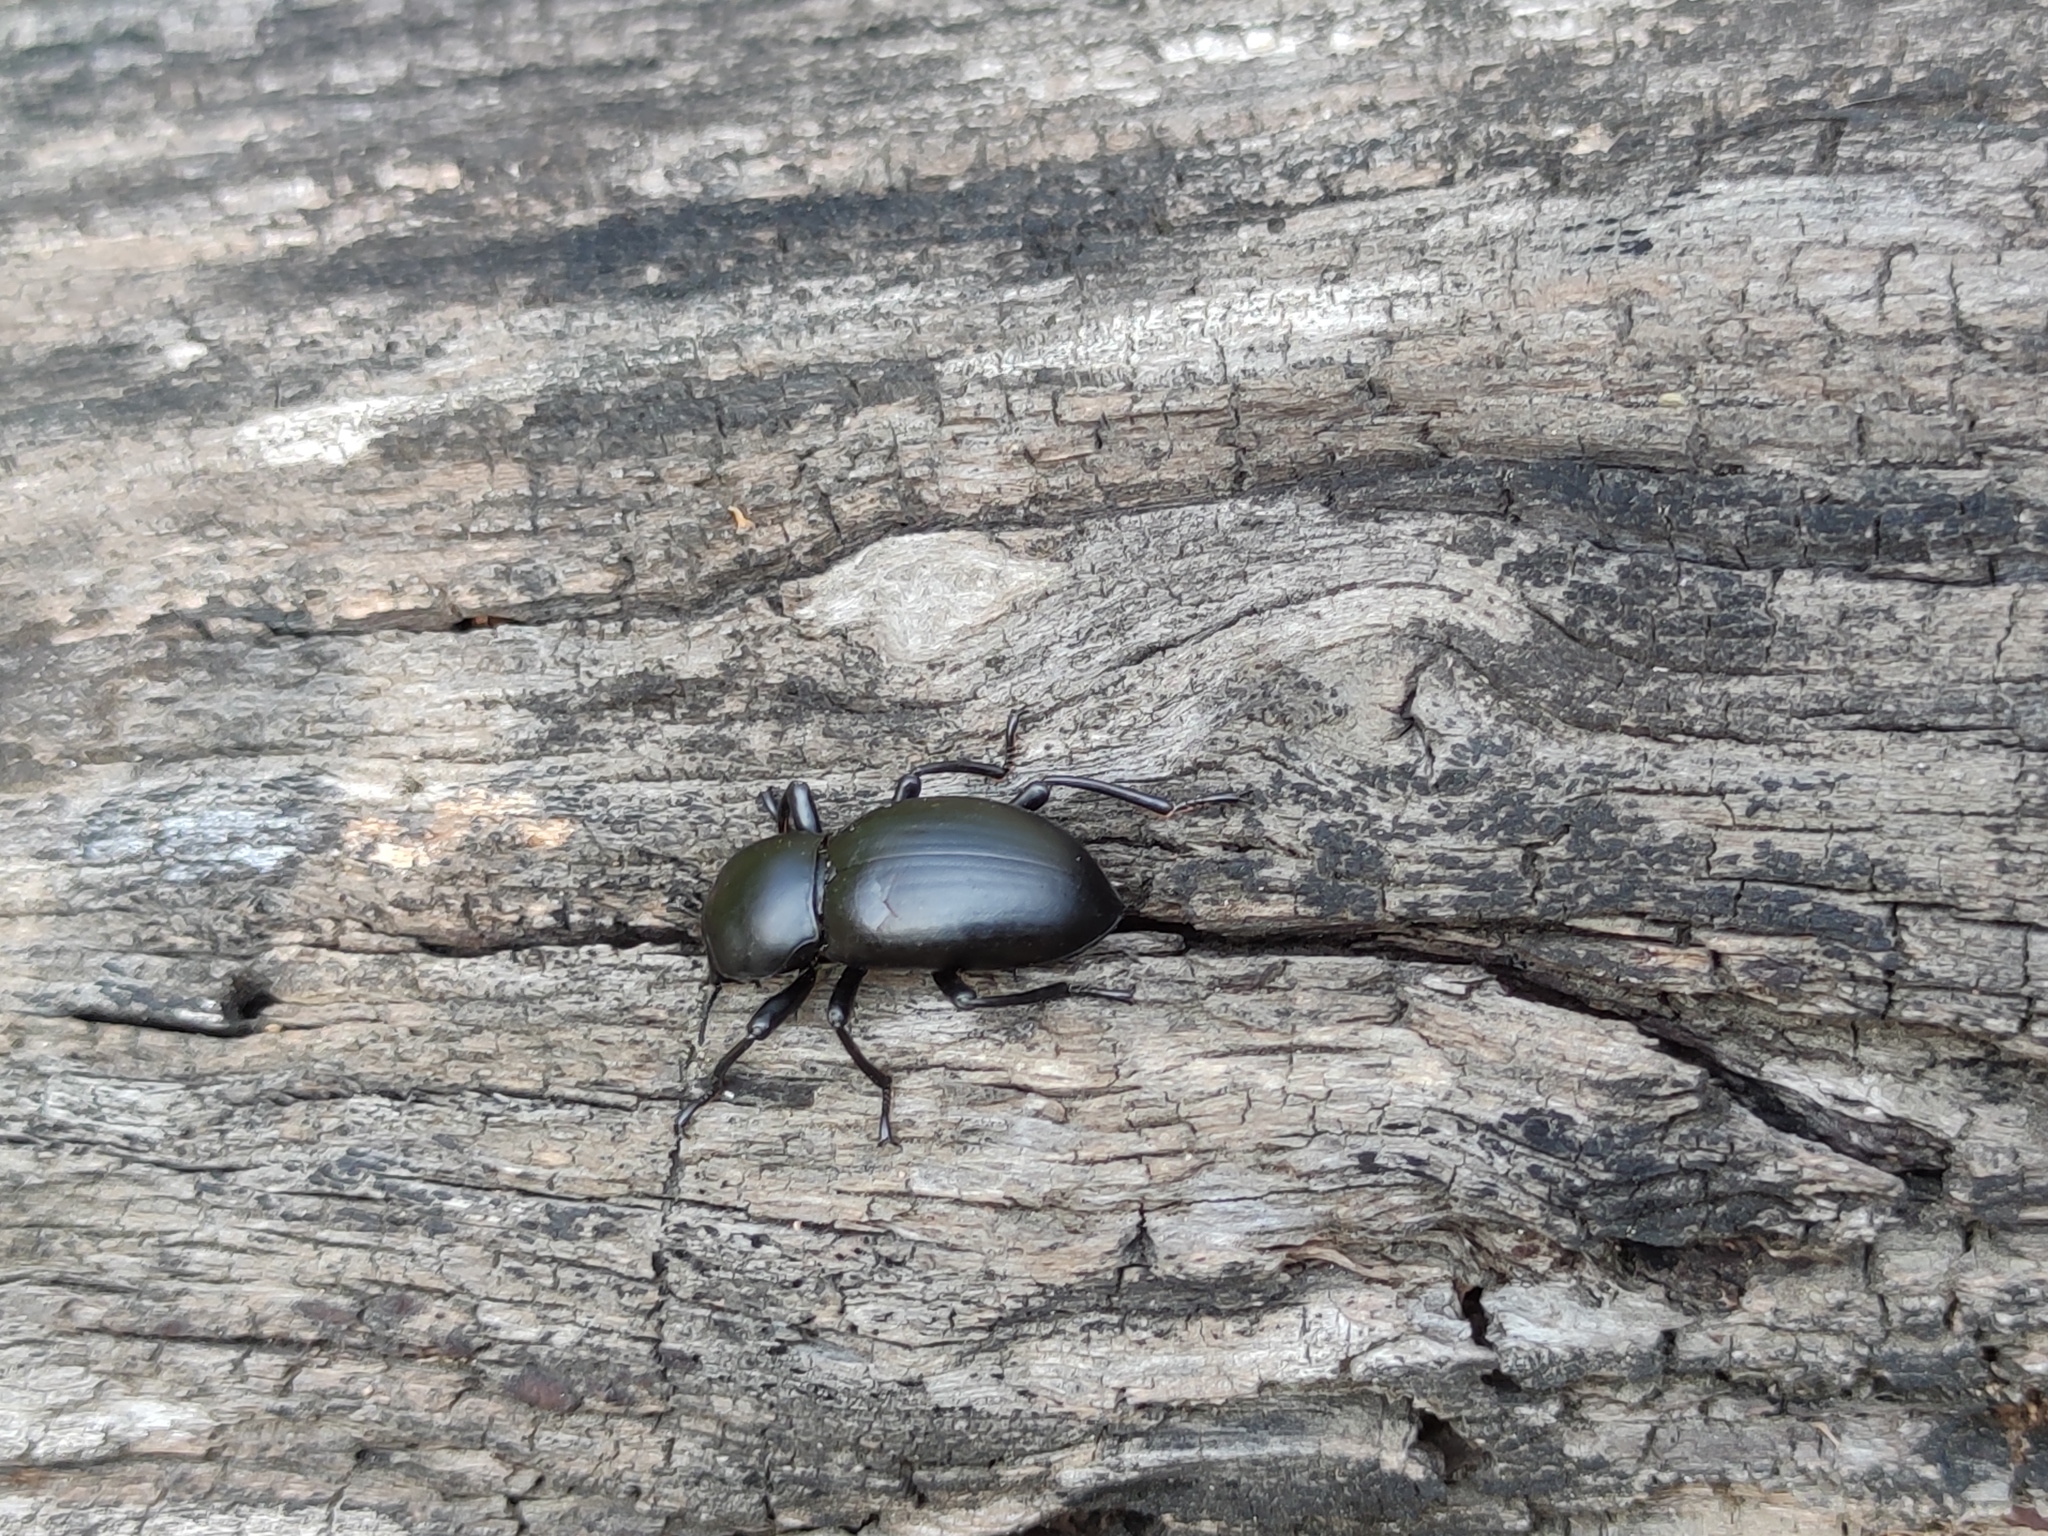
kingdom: Animalia
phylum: Arthropoda
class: Insecta
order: Coleoptera
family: Tenebrionidae
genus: Oenopion
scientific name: Oenopion zopheroides
